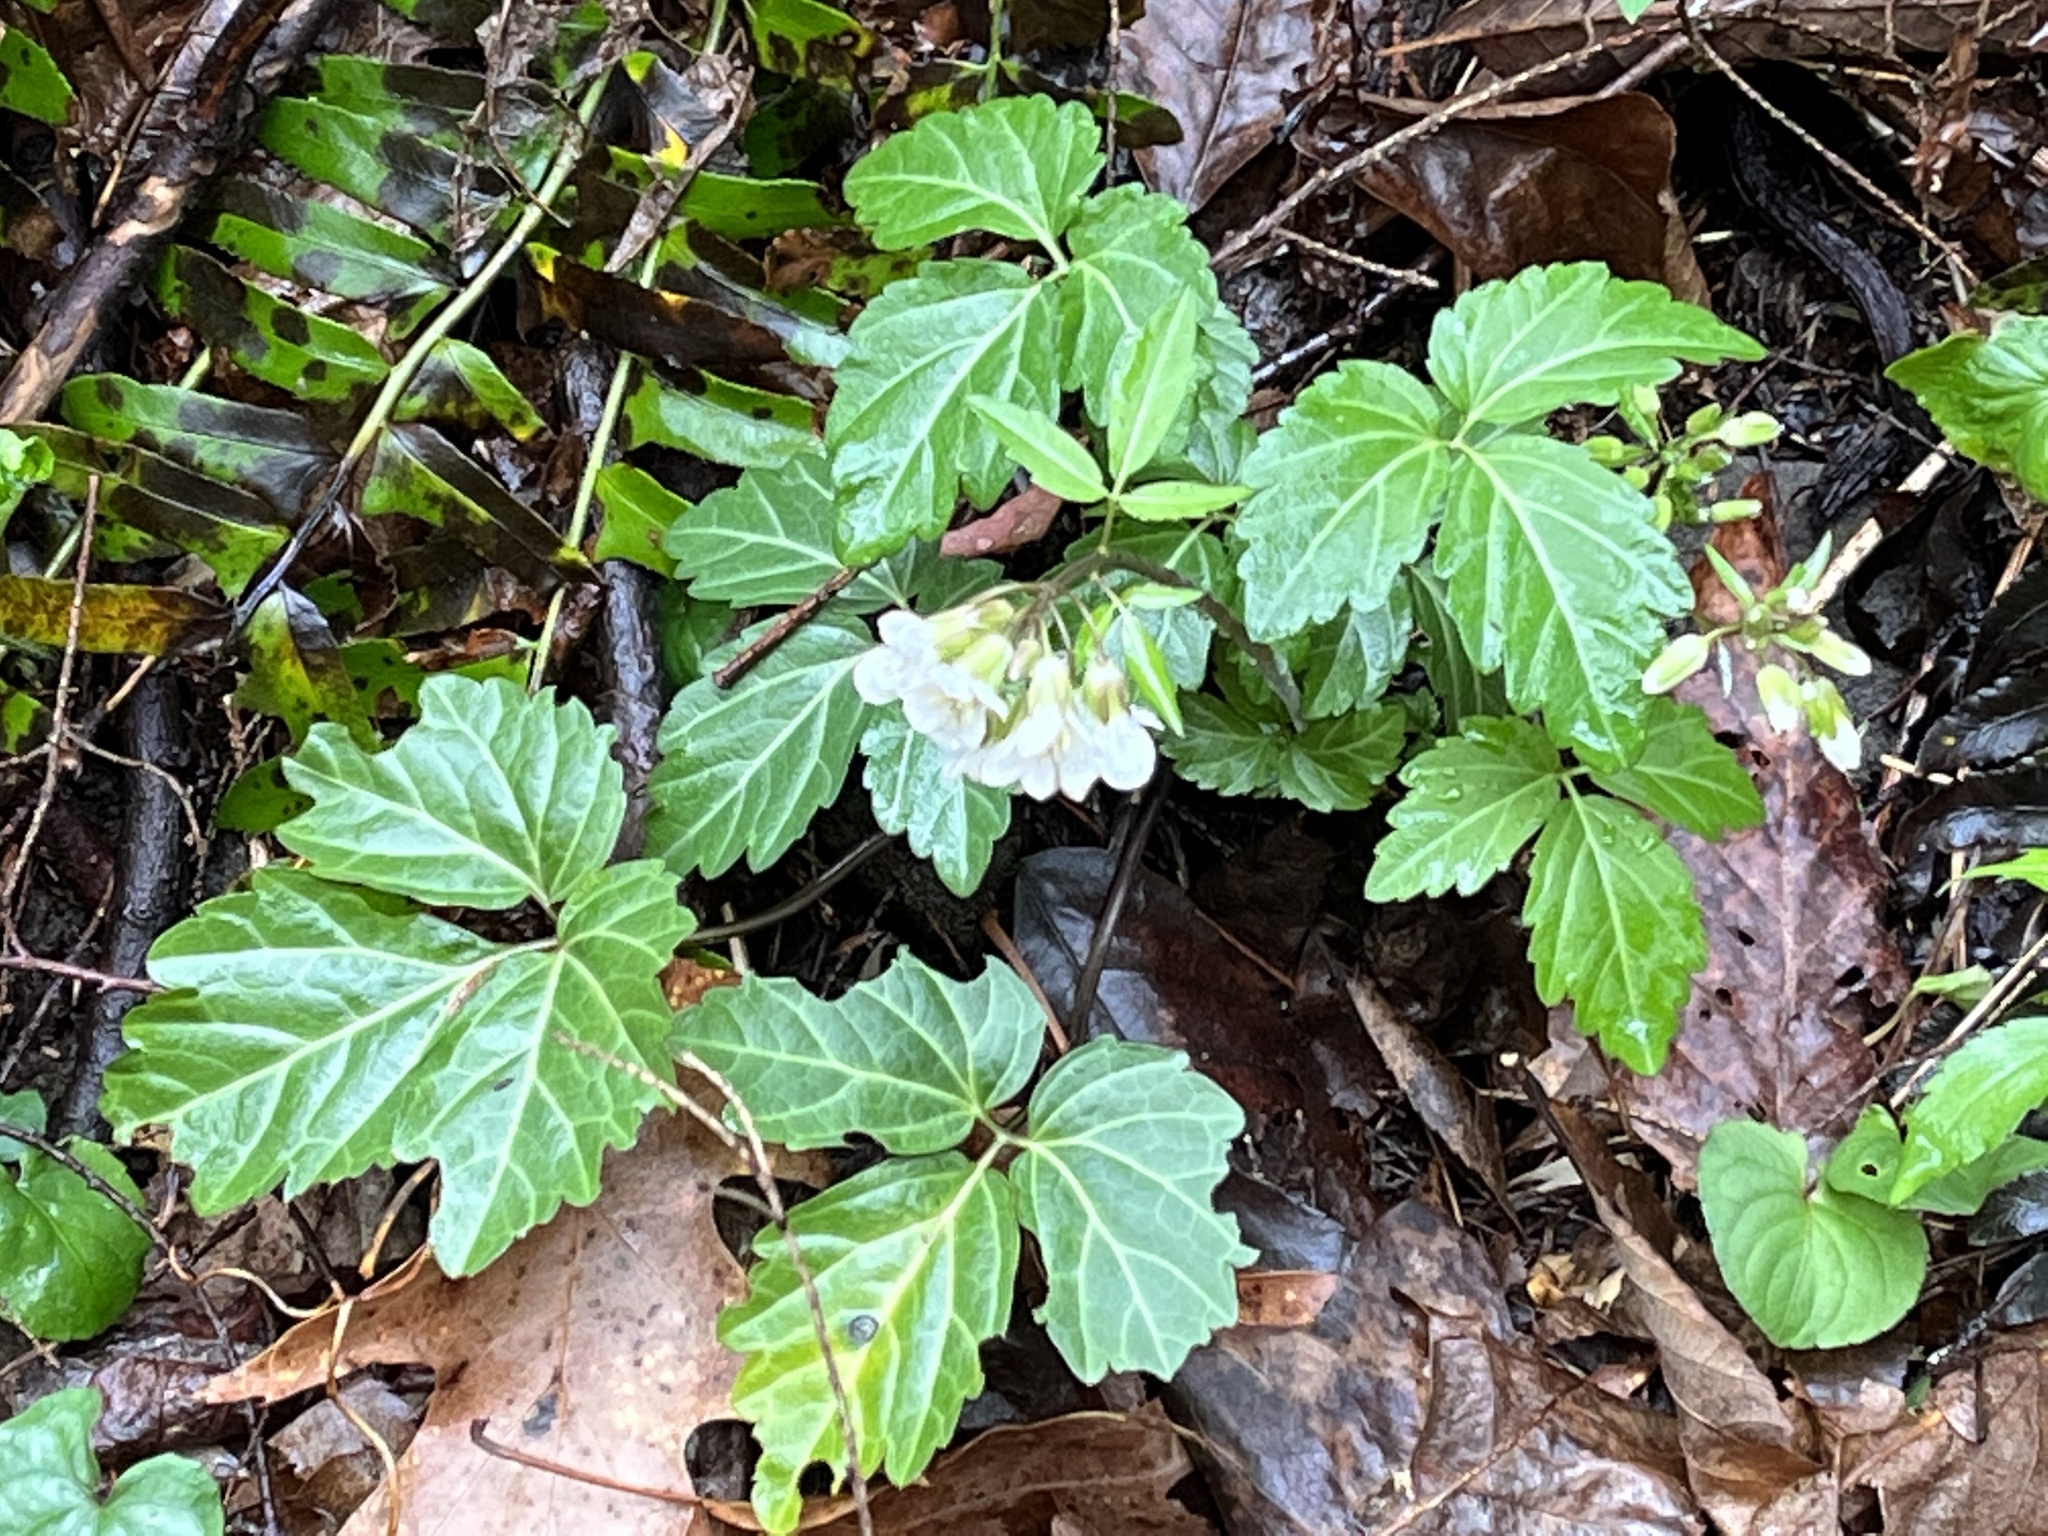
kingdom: Plantae
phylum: Tracheophyta
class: Magnoliopsida
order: Brassicales
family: Brassicaceae
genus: Cardamine
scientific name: Cardamine diphylla
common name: Broad-leaved toothwort
